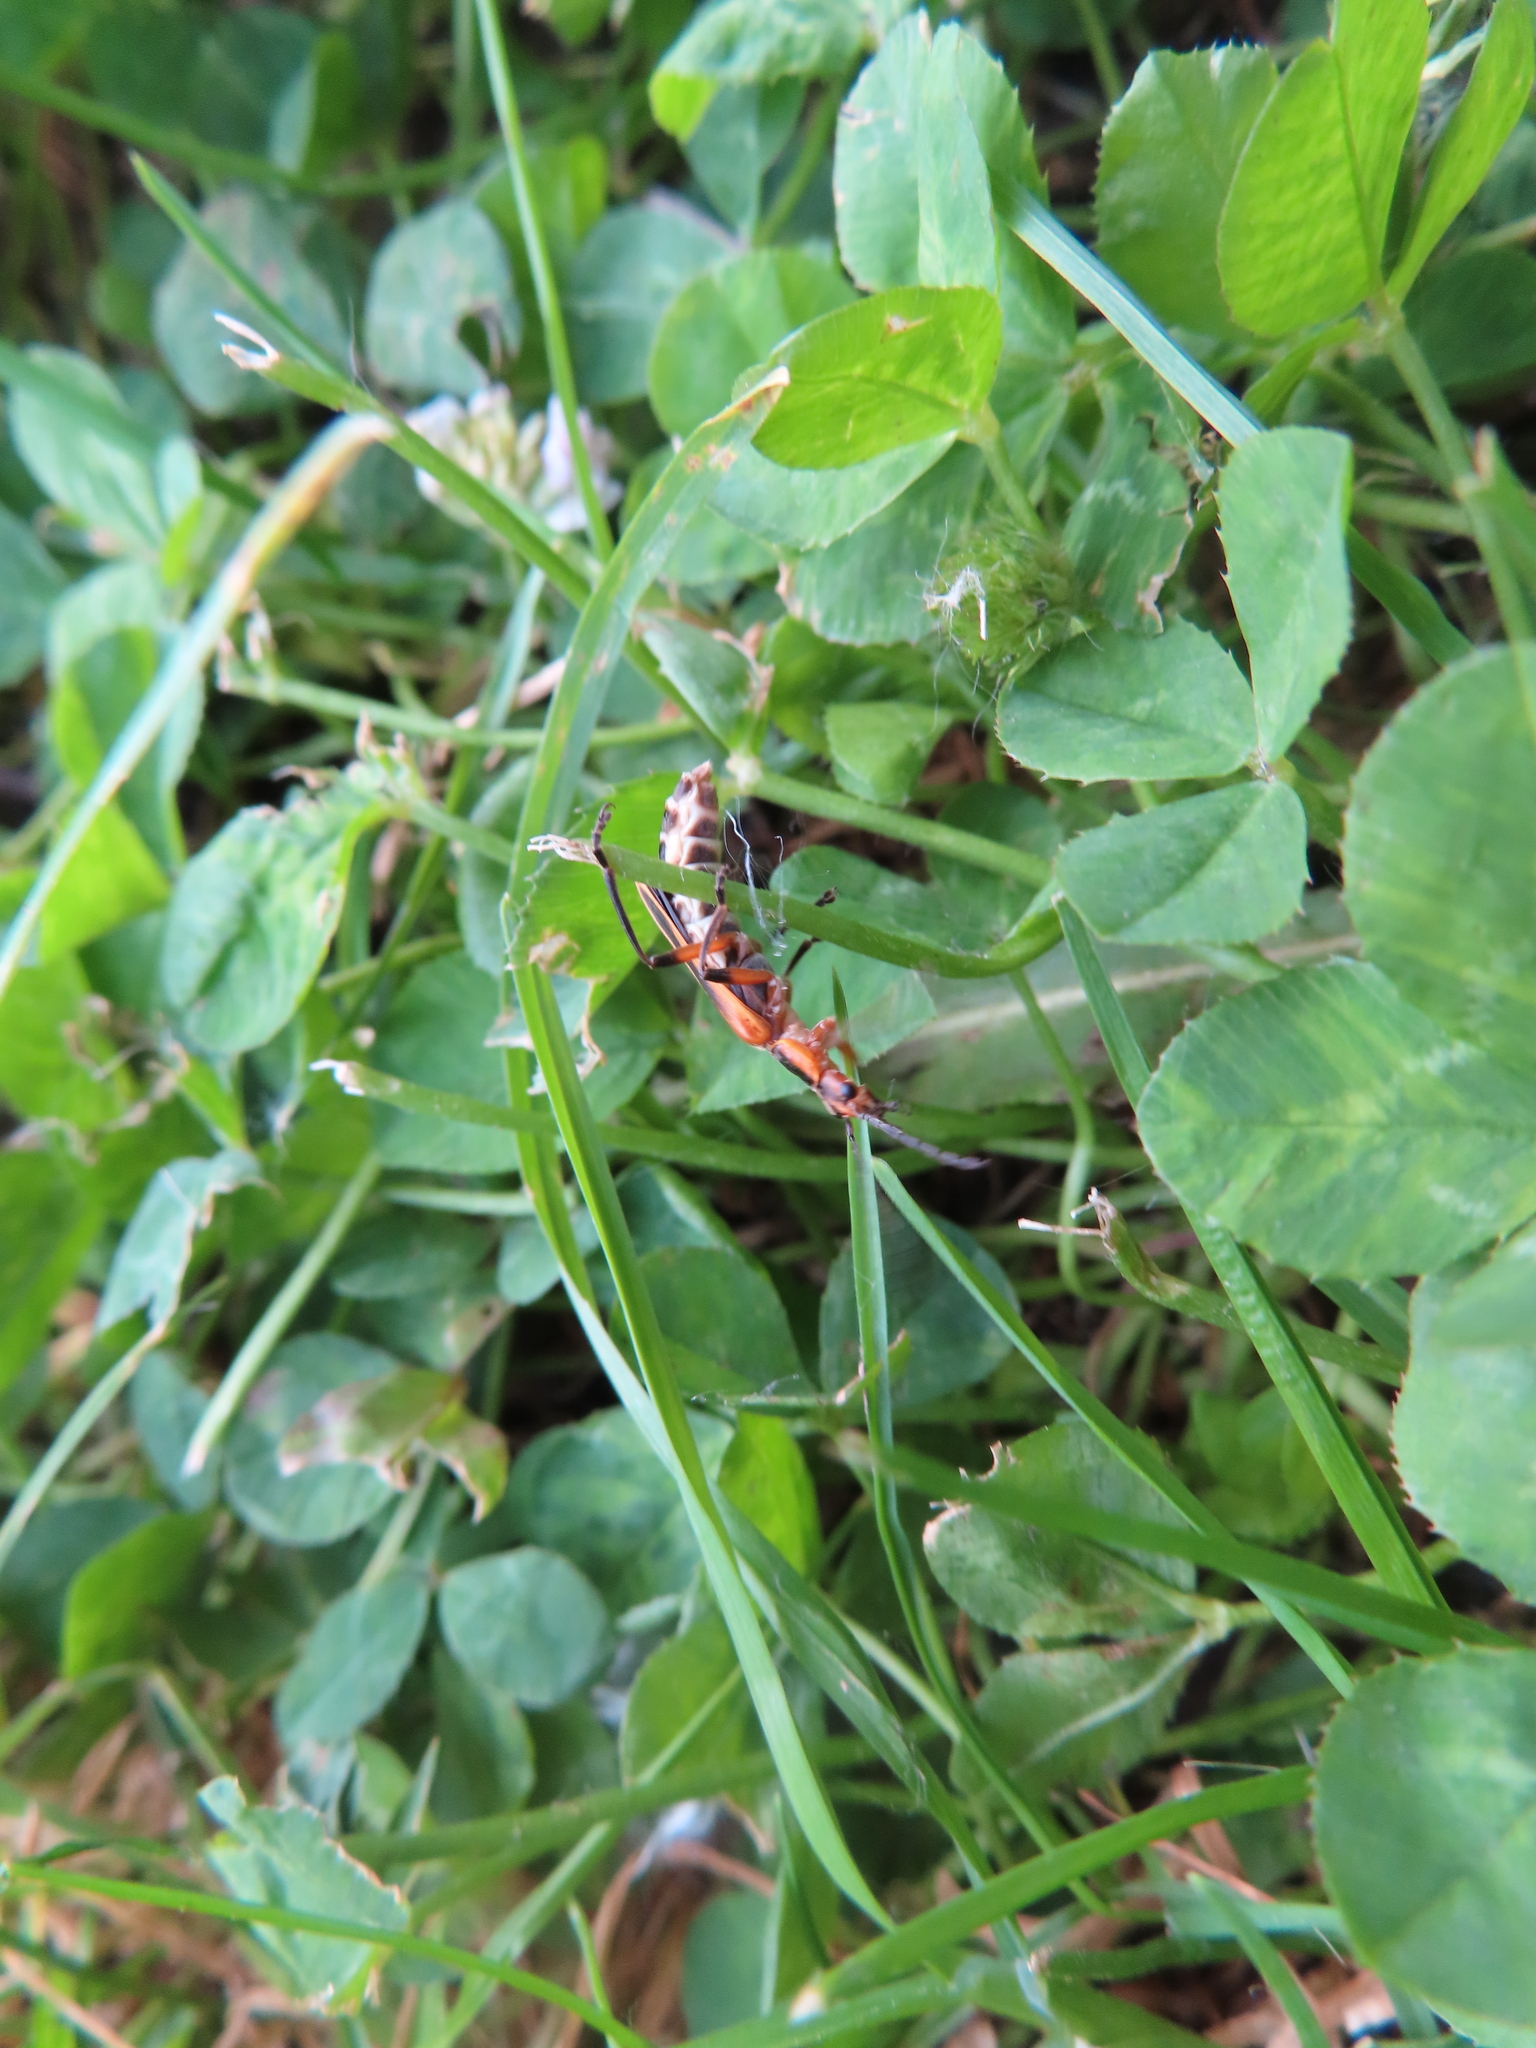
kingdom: Animalia
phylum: Arthropoda
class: Insecta
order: Coleoptera
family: Cantharidae
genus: Chauliognathus
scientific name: Chauliognathus marginatus
